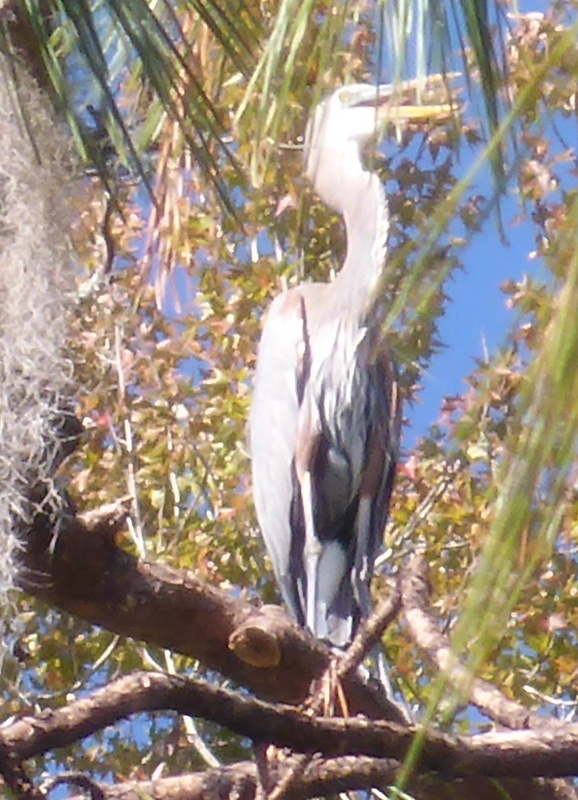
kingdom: Animalia
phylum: Chordata
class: Aves
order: Pelecaniformes
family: Ardeidae
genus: Ardea
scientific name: Ardea herodias
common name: Great blue heron
